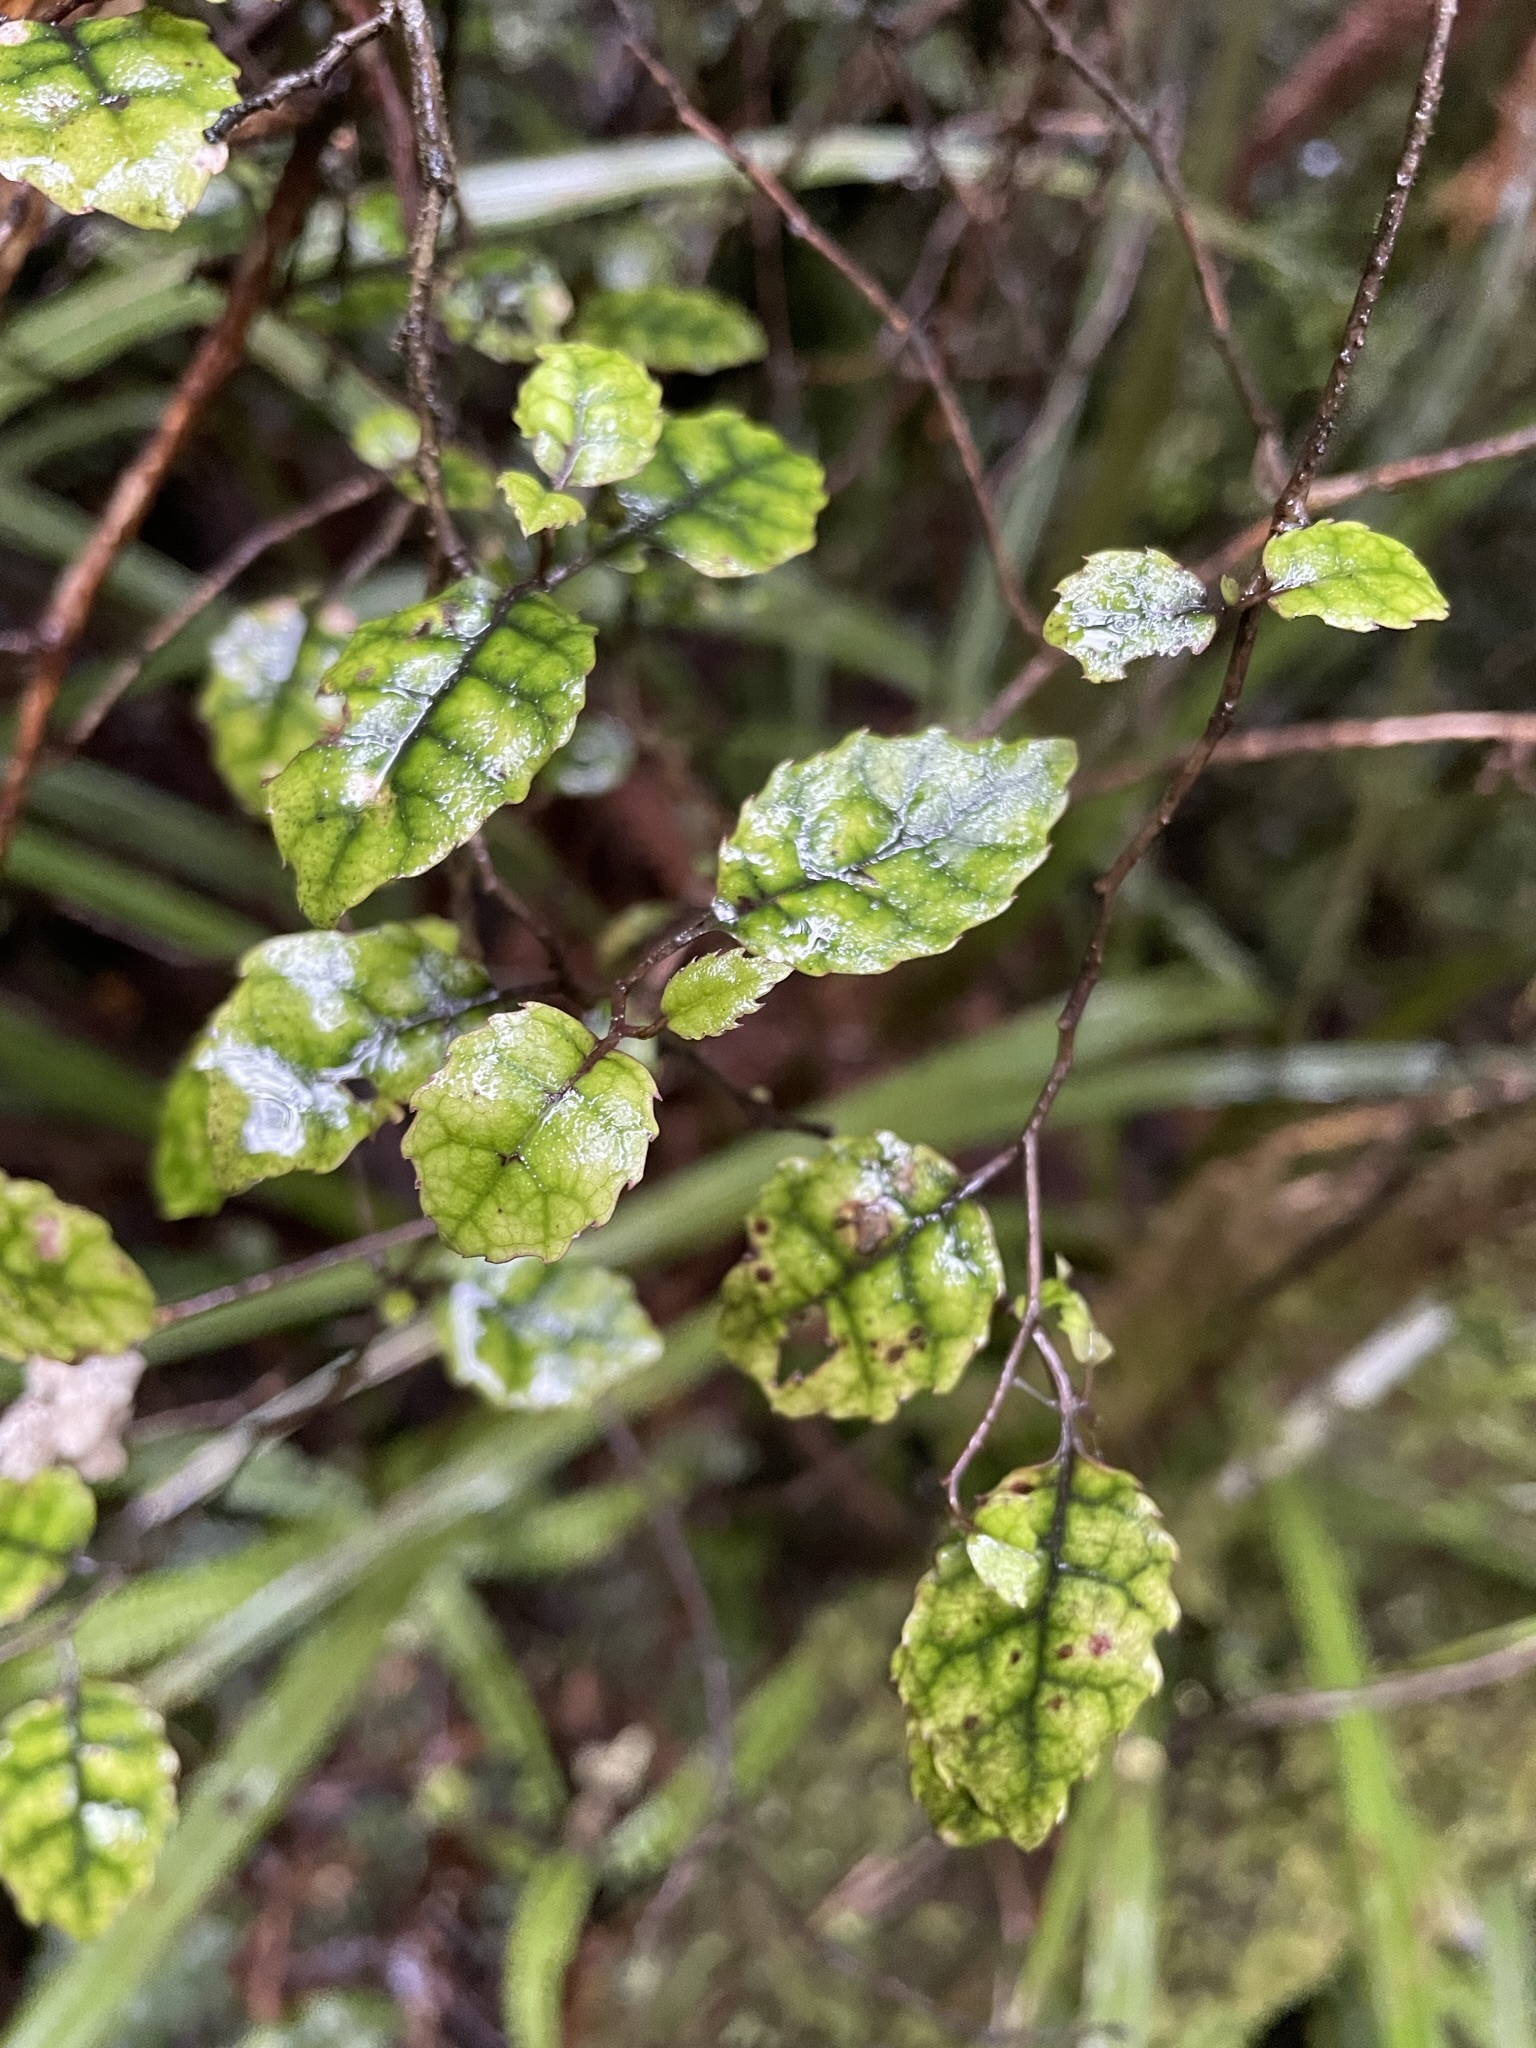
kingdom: Plantae
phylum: Tracheophyta
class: Magnoliopsida
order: Asterales
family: Rousseaceae
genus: Carpodetus
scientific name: Carpodetus serratus
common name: White mapau
